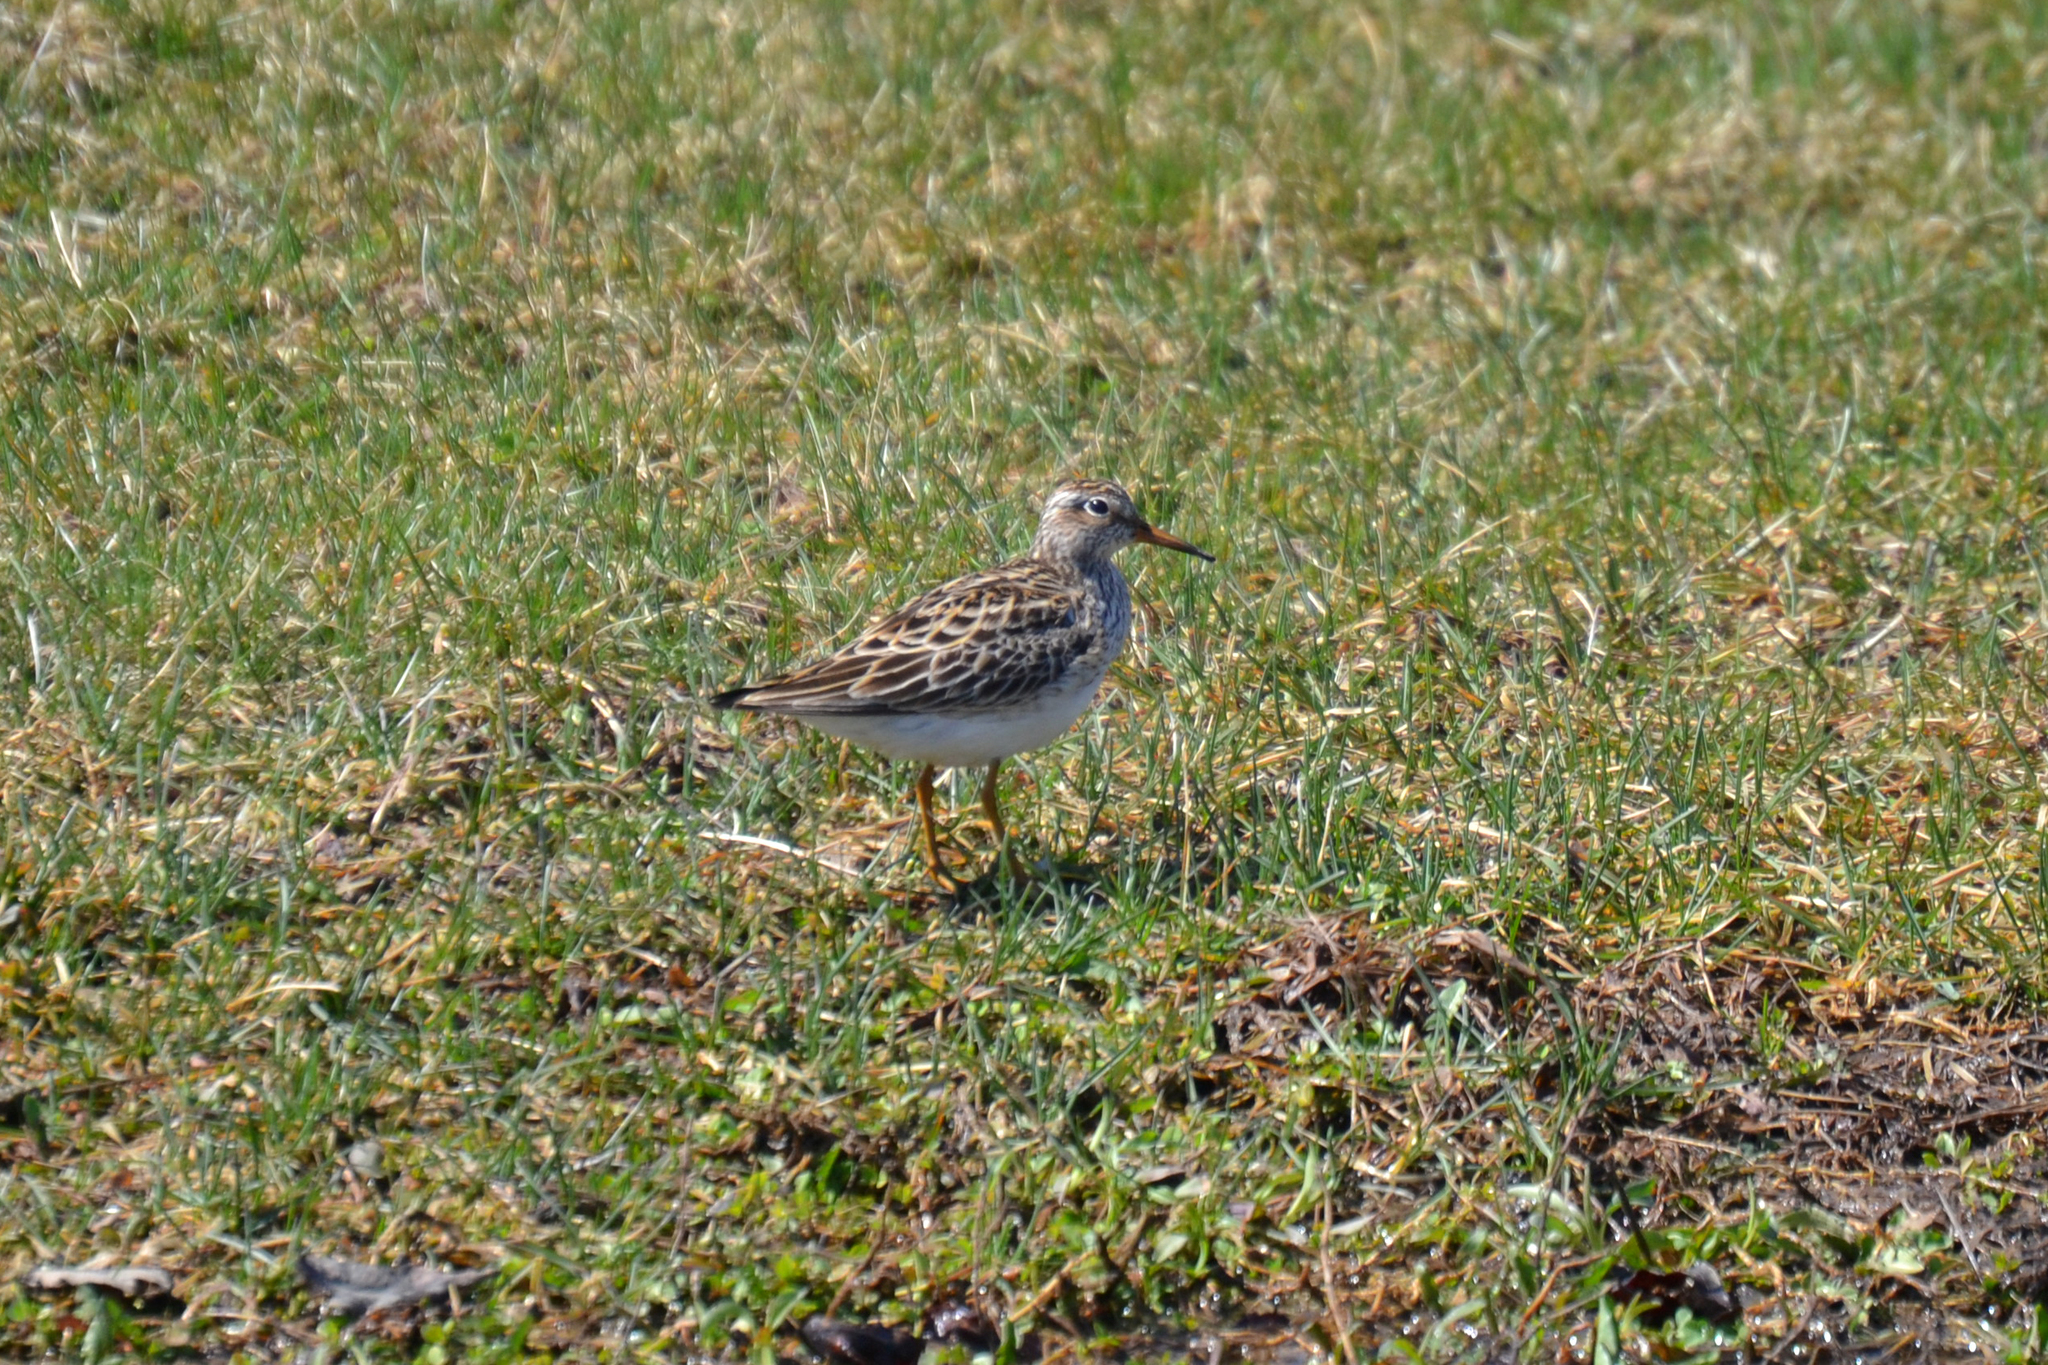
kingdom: Animalia
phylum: Chordata
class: Aves
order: Charadriiformes
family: Scolopacidae
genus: Calidris
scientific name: Calidris melanotos
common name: Pectoral sandpiper
